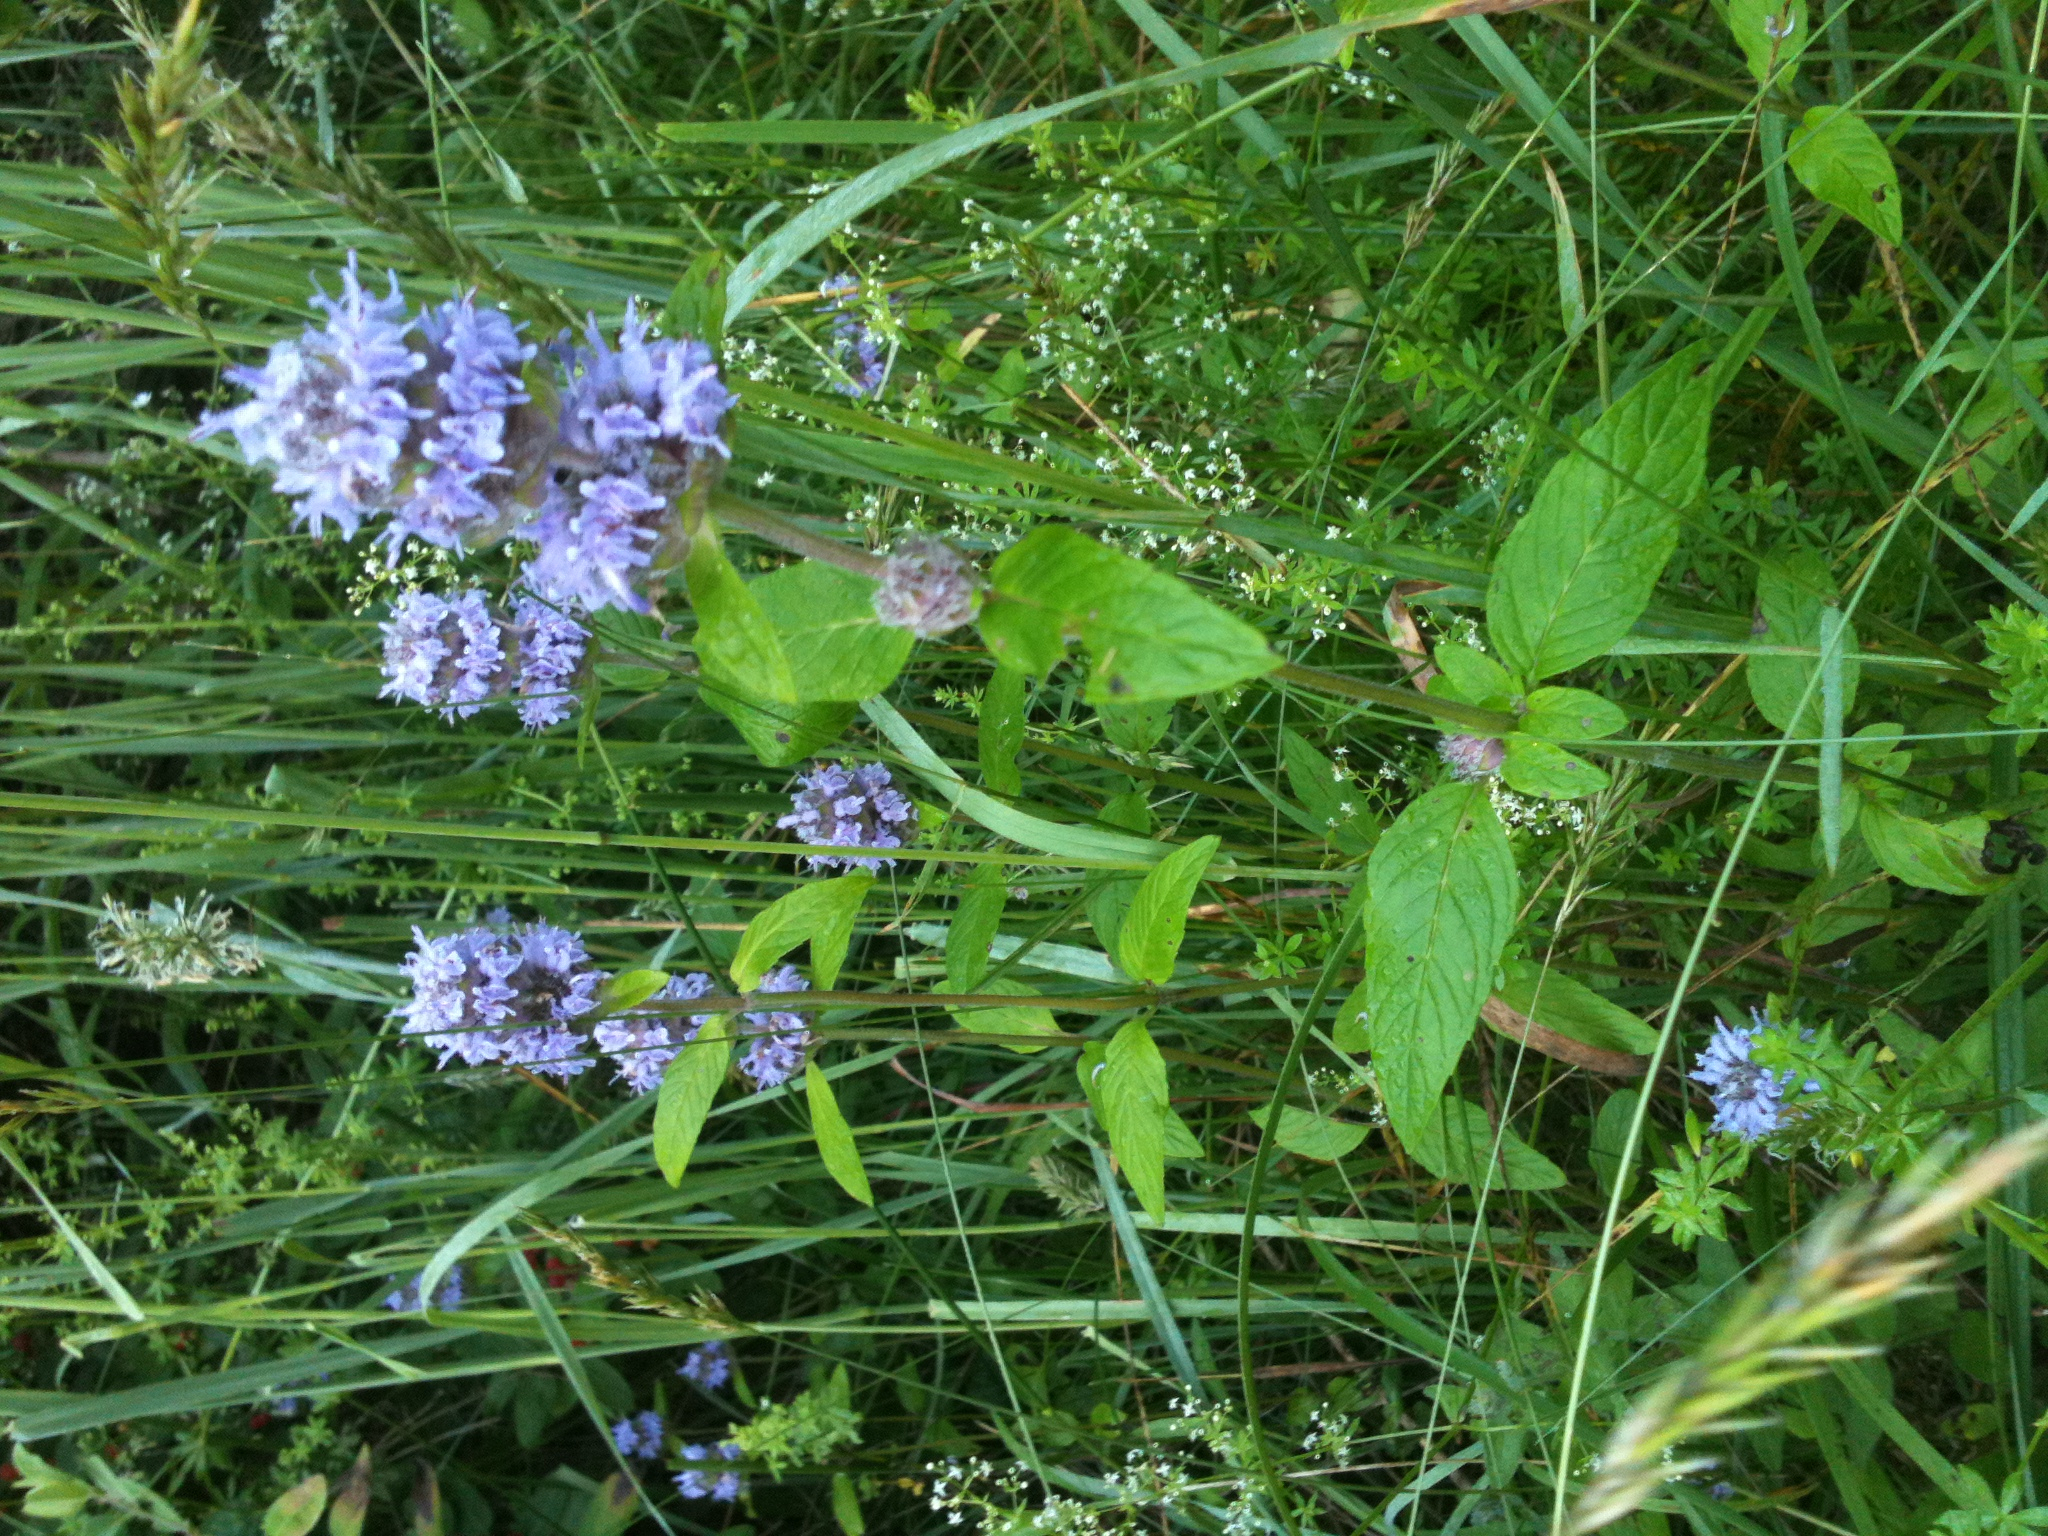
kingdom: Plantae
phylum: Tracheophyta
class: Magnoliopsida
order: Lamiales
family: Lamiaceae
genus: Blephilia
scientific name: Blephilia ciliata
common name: Downy blephilia
